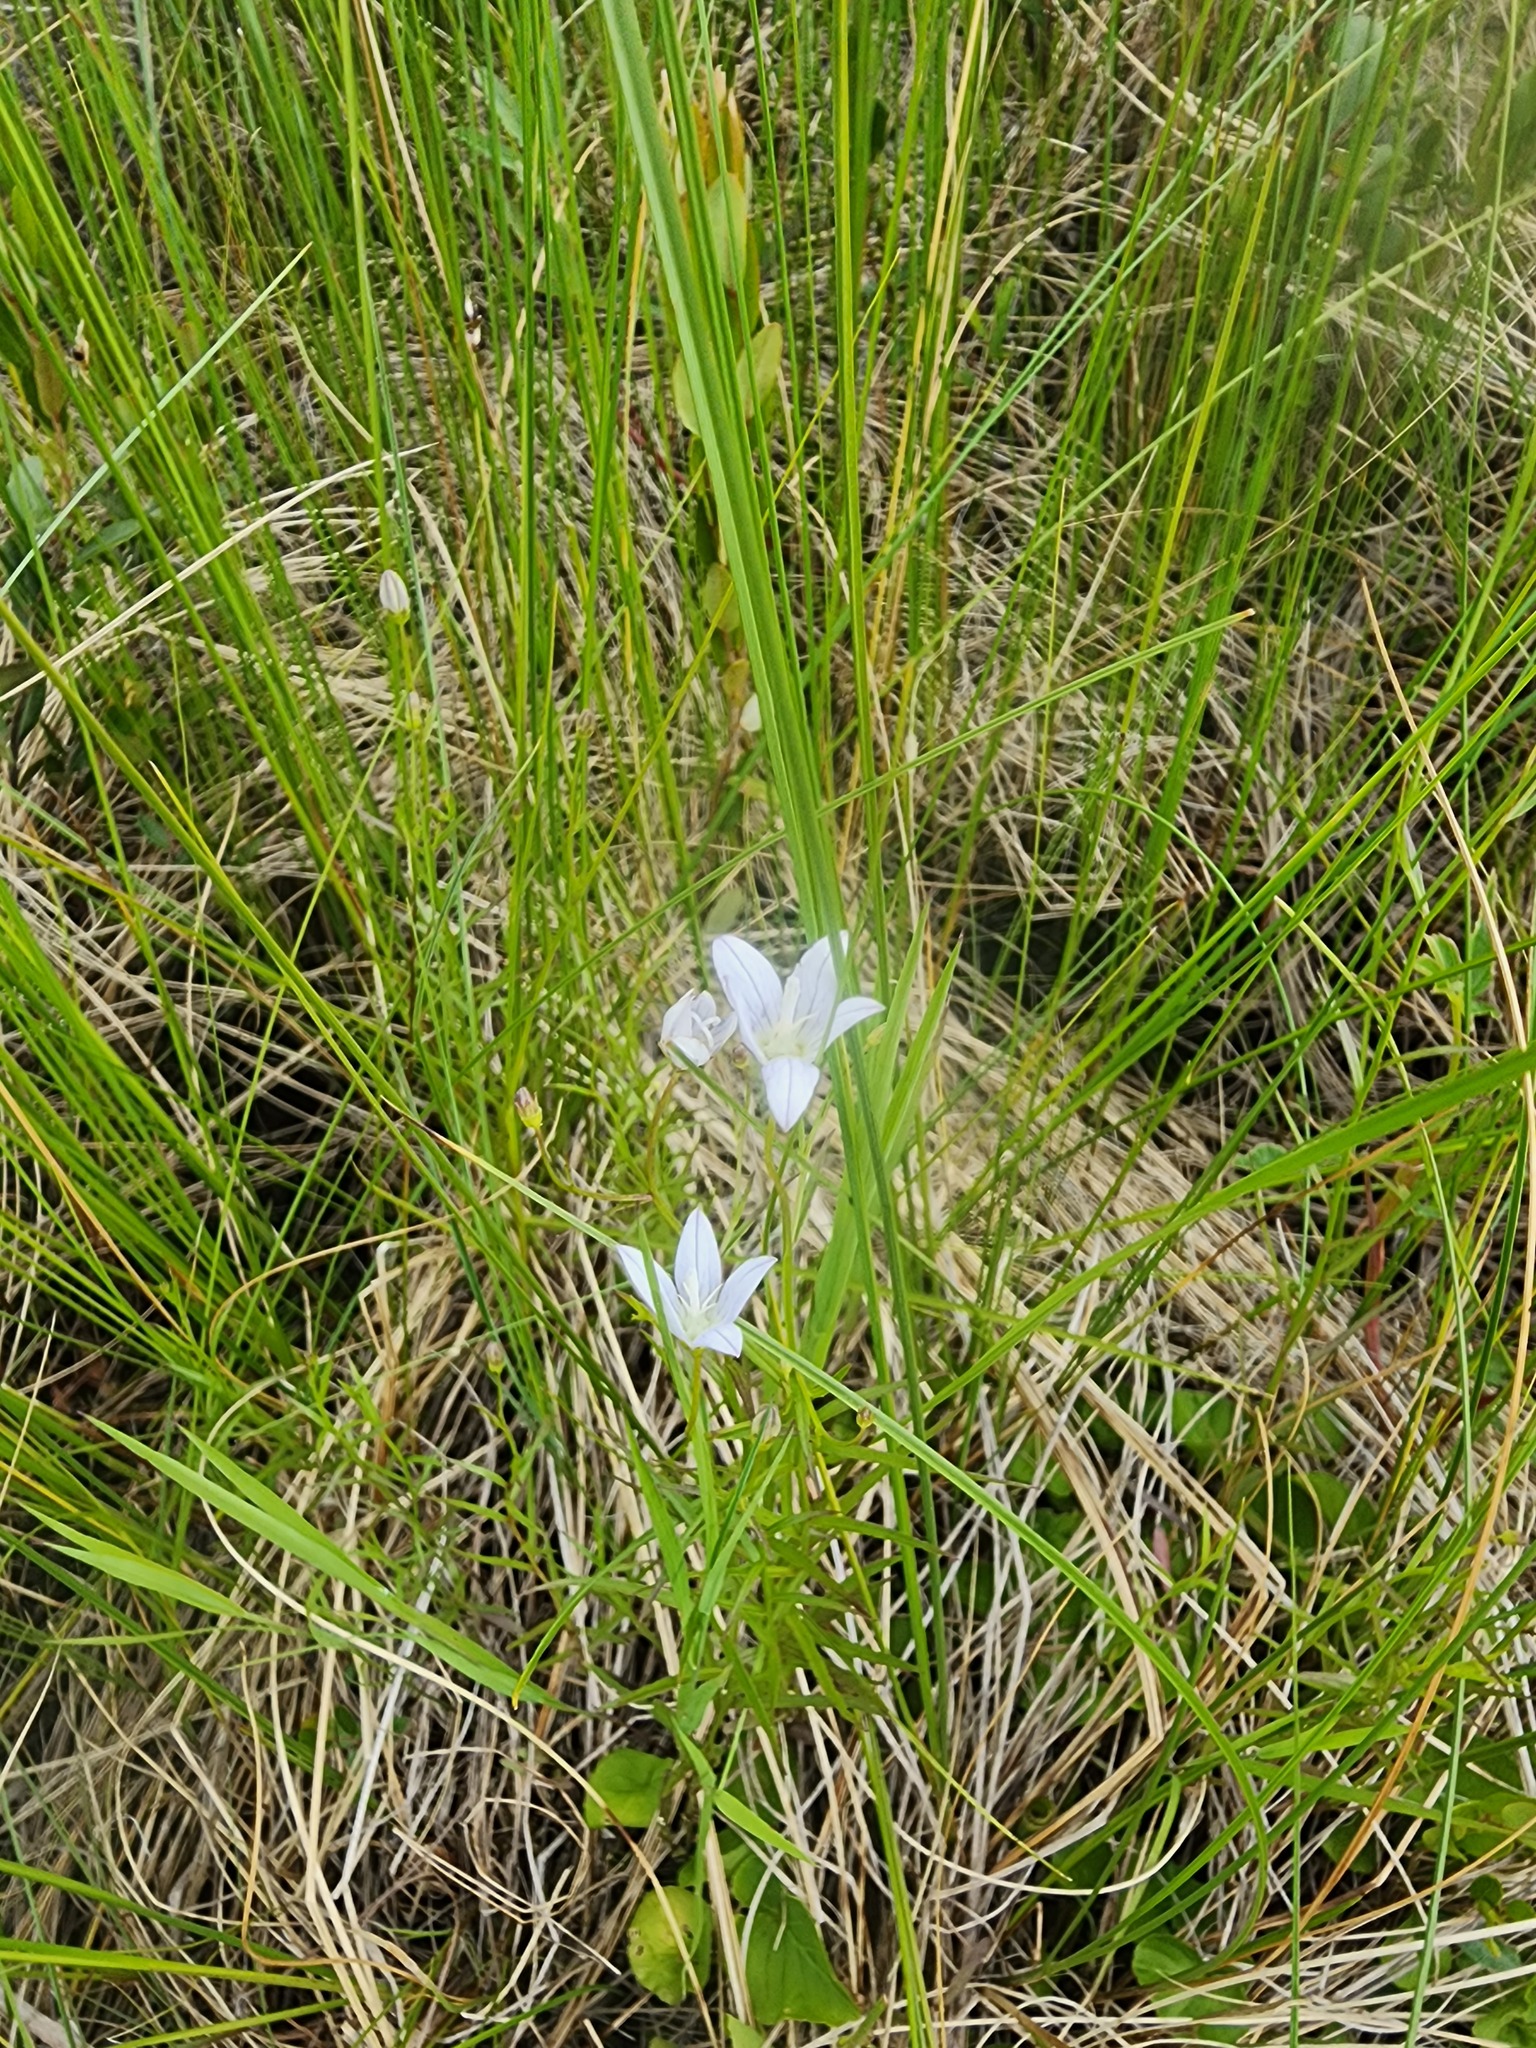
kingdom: Plantae
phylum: Tracheophyta
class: Magnoliopsida
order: Asterales
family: Campanulaceae
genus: Palustricodon
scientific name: Palustricodon aparinoides
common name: Bedstraw bellflower
